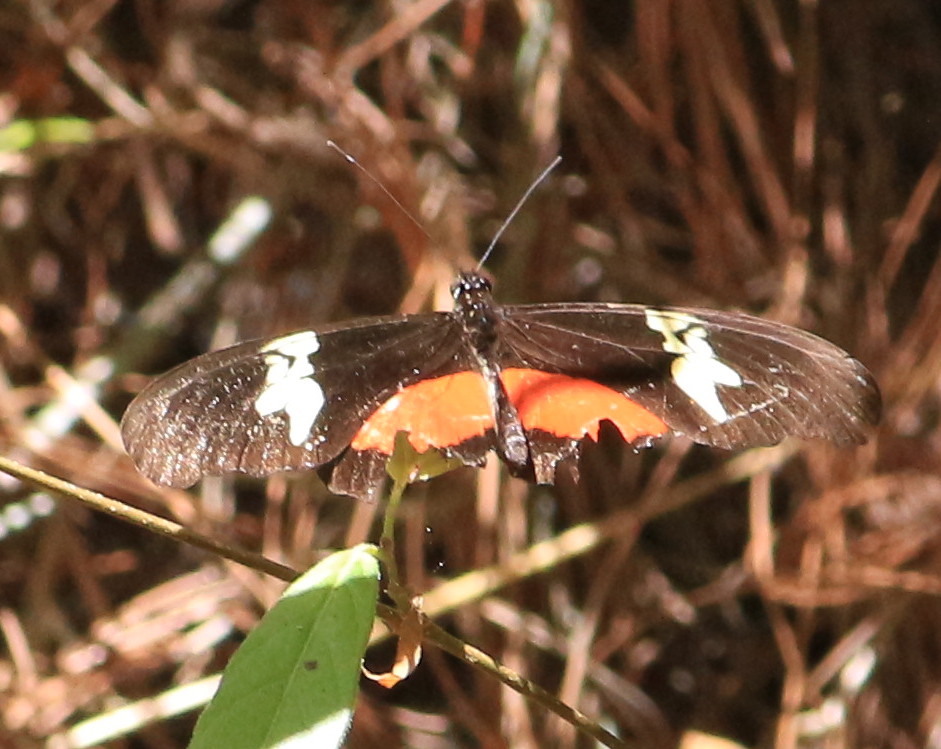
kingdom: Animalia
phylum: Arthropoda
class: Insecta
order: Lepidoptera
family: Nymphalidae
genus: Heliconius
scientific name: Heliconius hortense
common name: Mexican longwing
